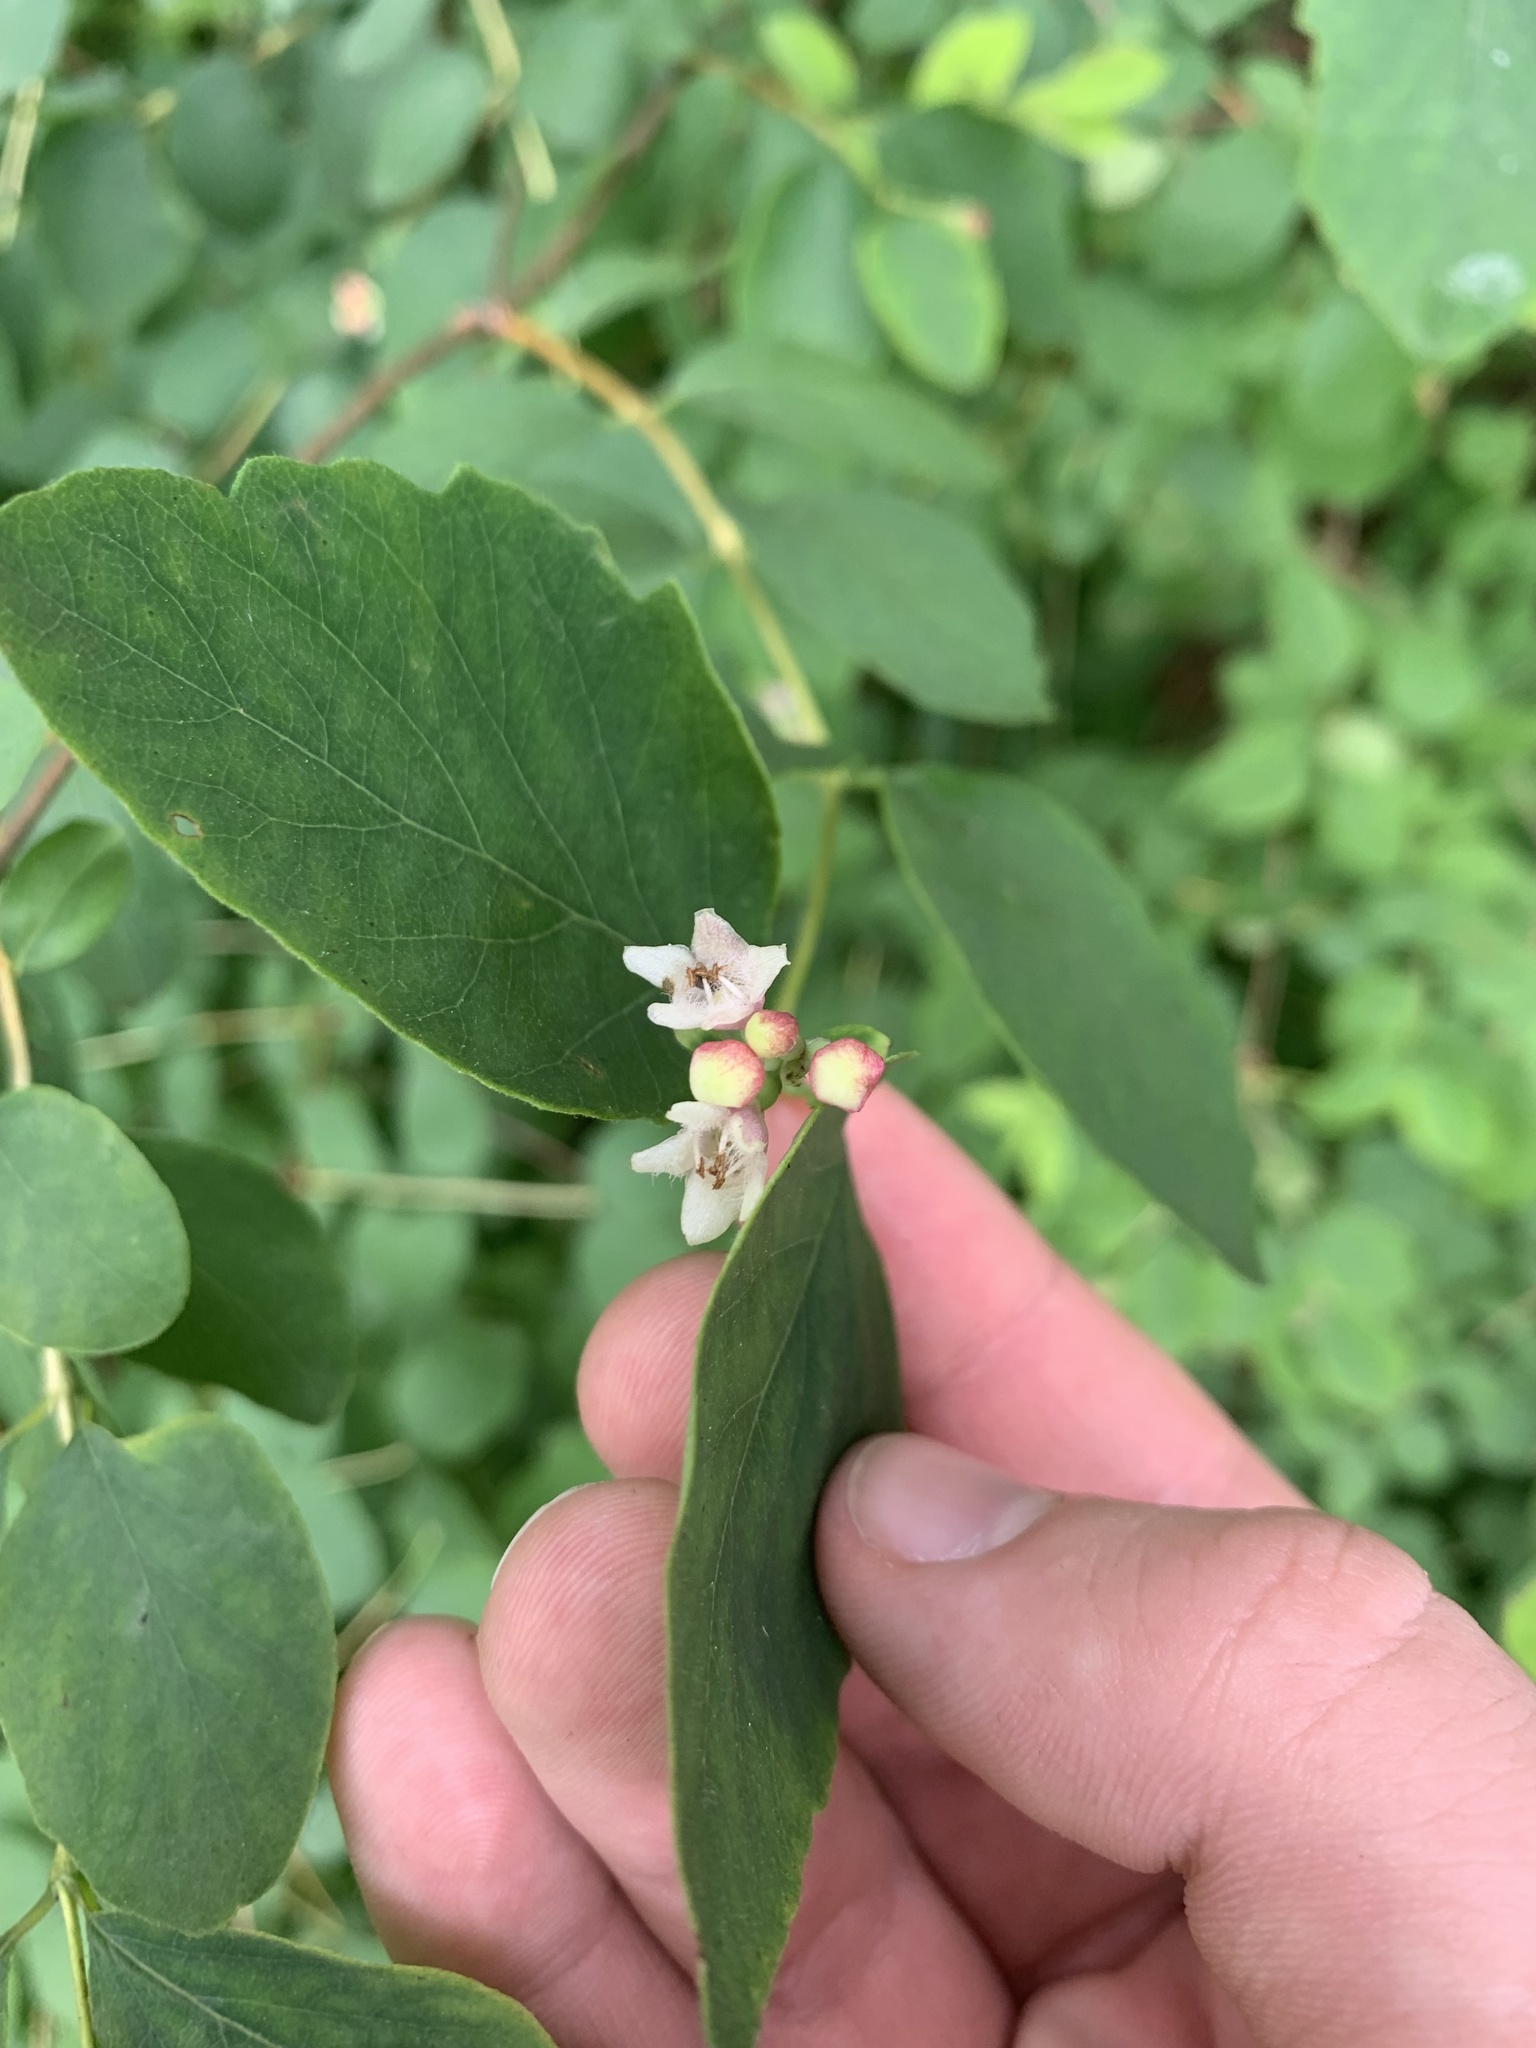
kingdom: Plantae
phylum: Tracheophyta
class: Magnoliopsida
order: Gentianales
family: Apocynaceae
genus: Apocynum
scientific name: Apocynum androsaemifolium
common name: Spreading dogbane
